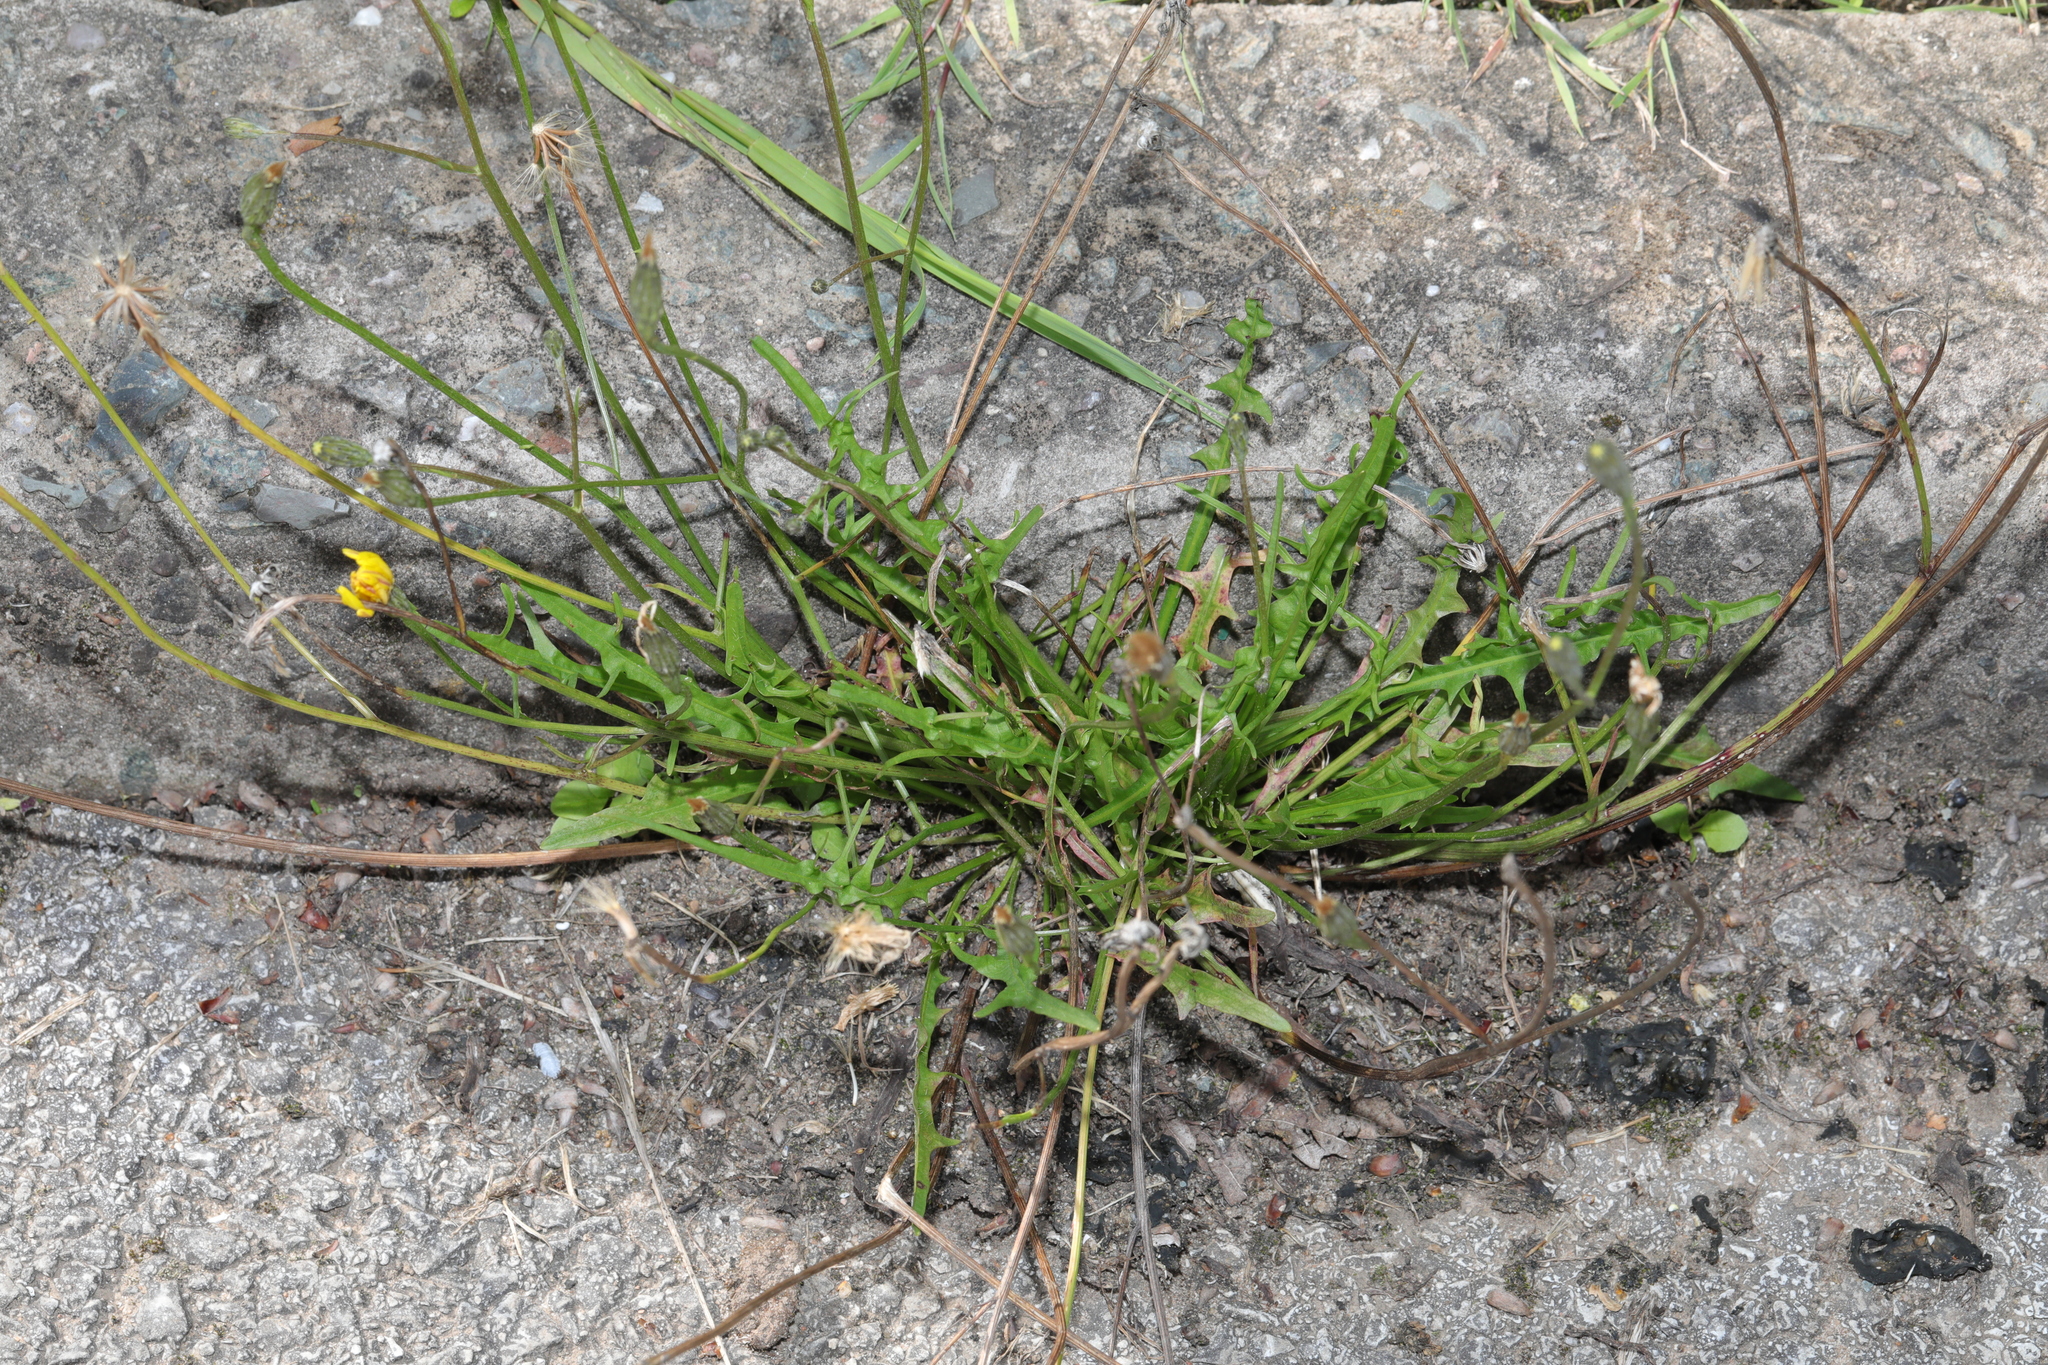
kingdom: Plantae
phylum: Tracheophyta
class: Magnoliopsida
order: Asterales
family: Asteraceae
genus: Scorzoneroides
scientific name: Scorzoneroides autumnalis
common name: Autumn hawkbit
